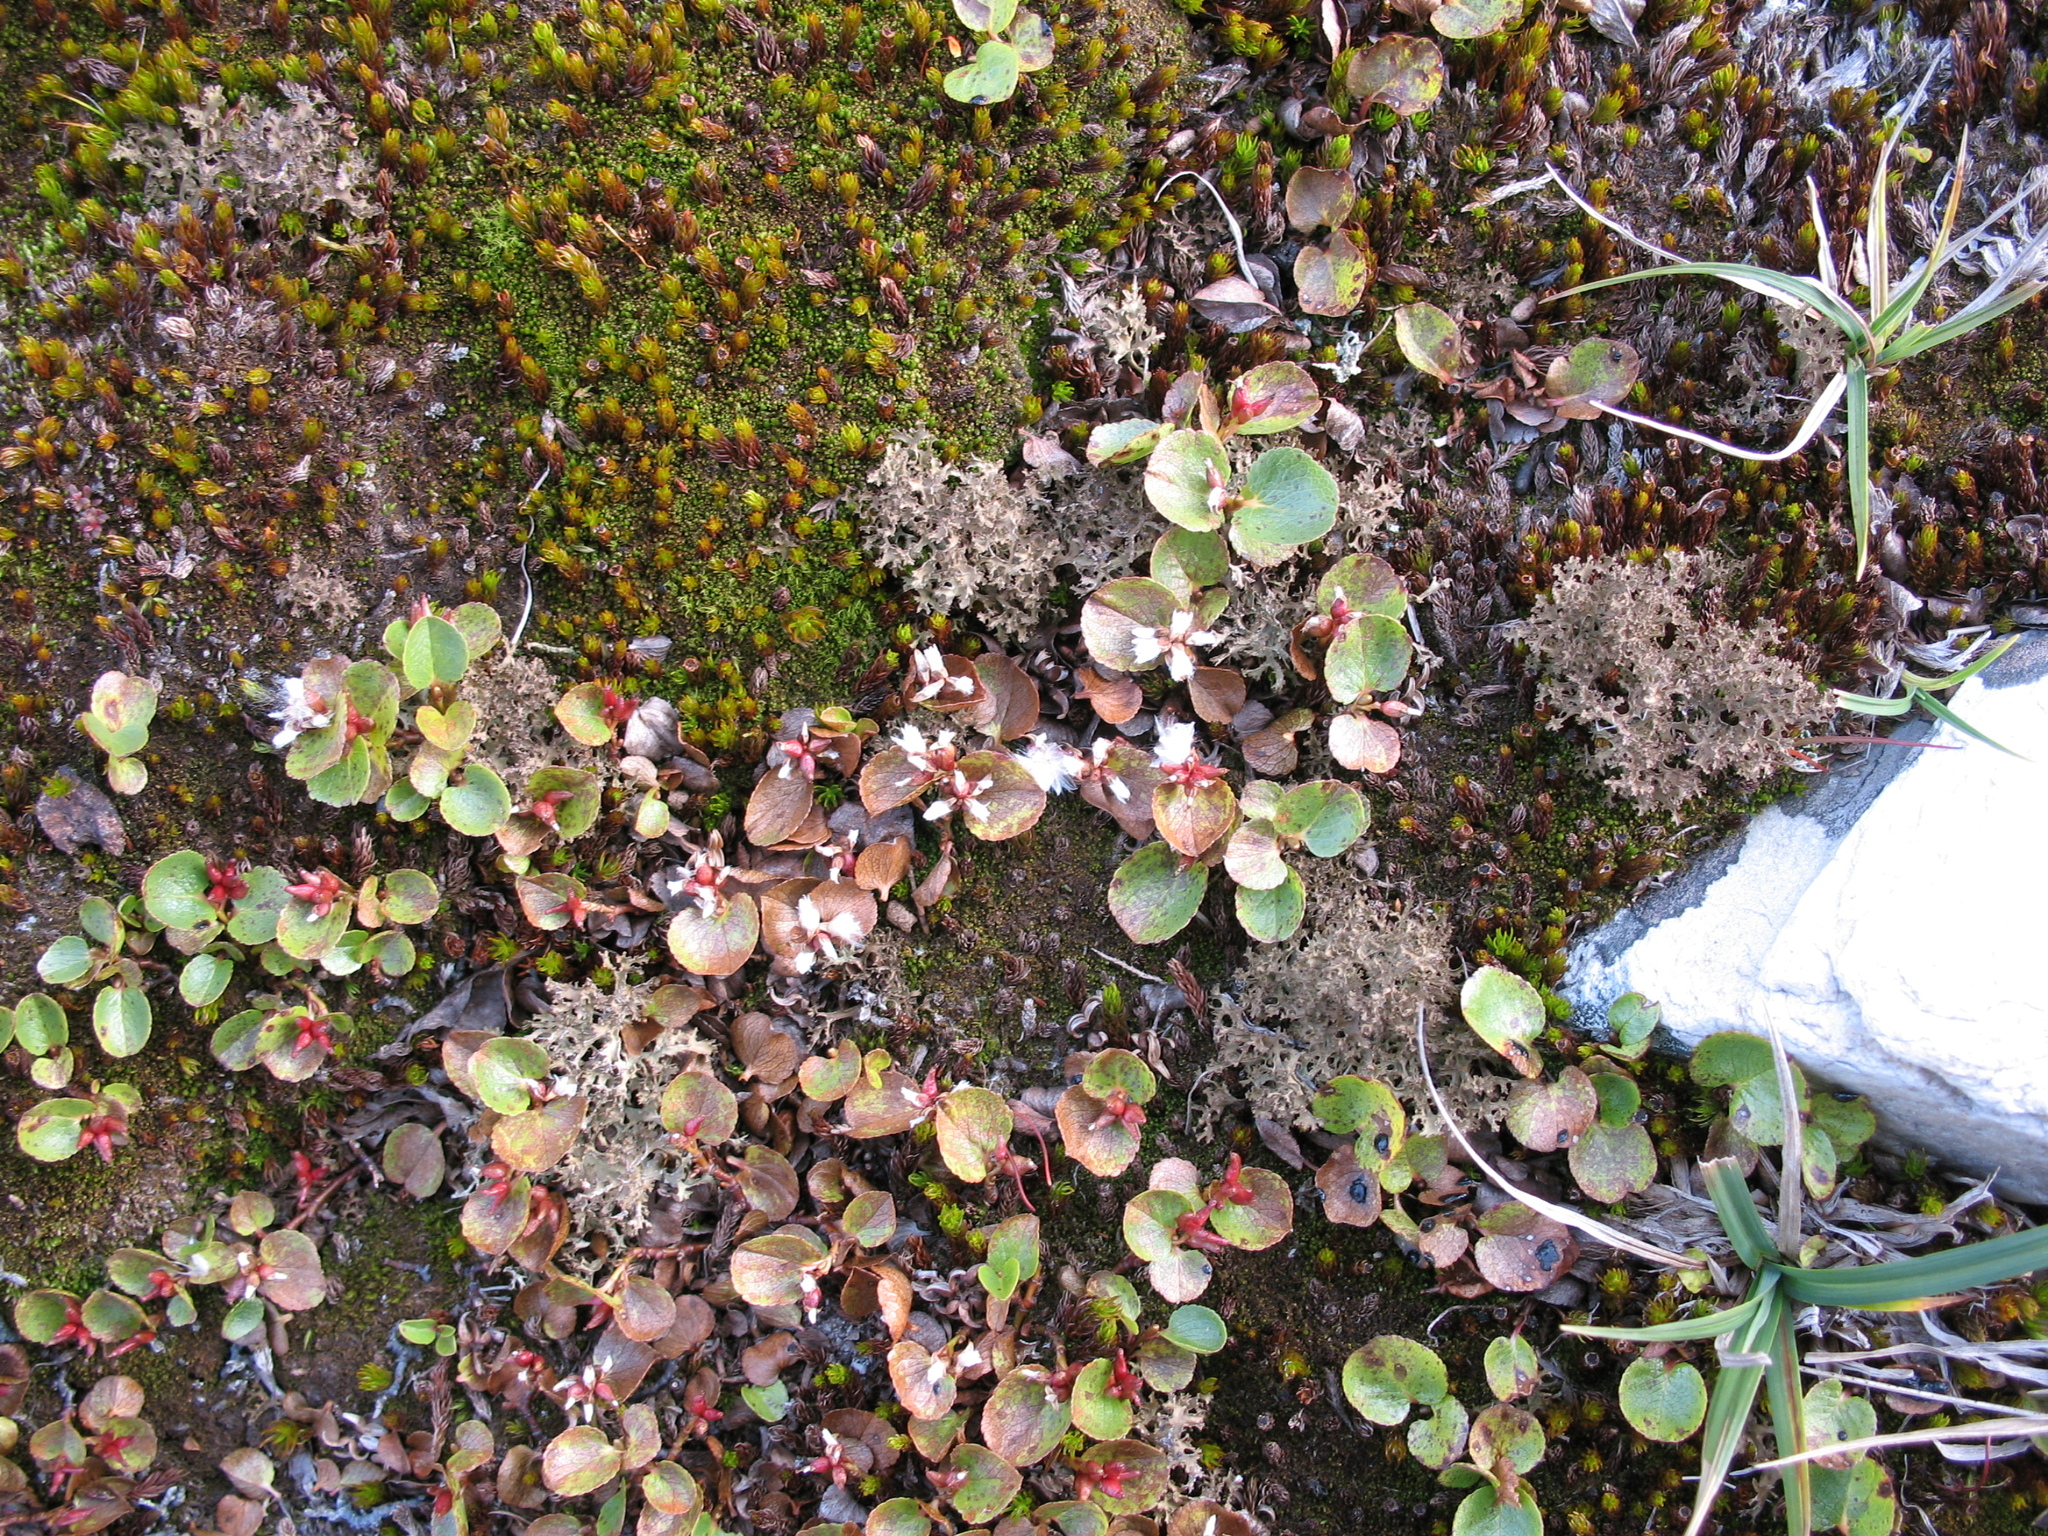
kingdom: Plantae
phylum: Tracheophyta
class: Magnoliopsida
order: Malpighiales
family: Salicaceae
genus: Salix
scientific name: Salix herbacea
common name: Dwarf willow
